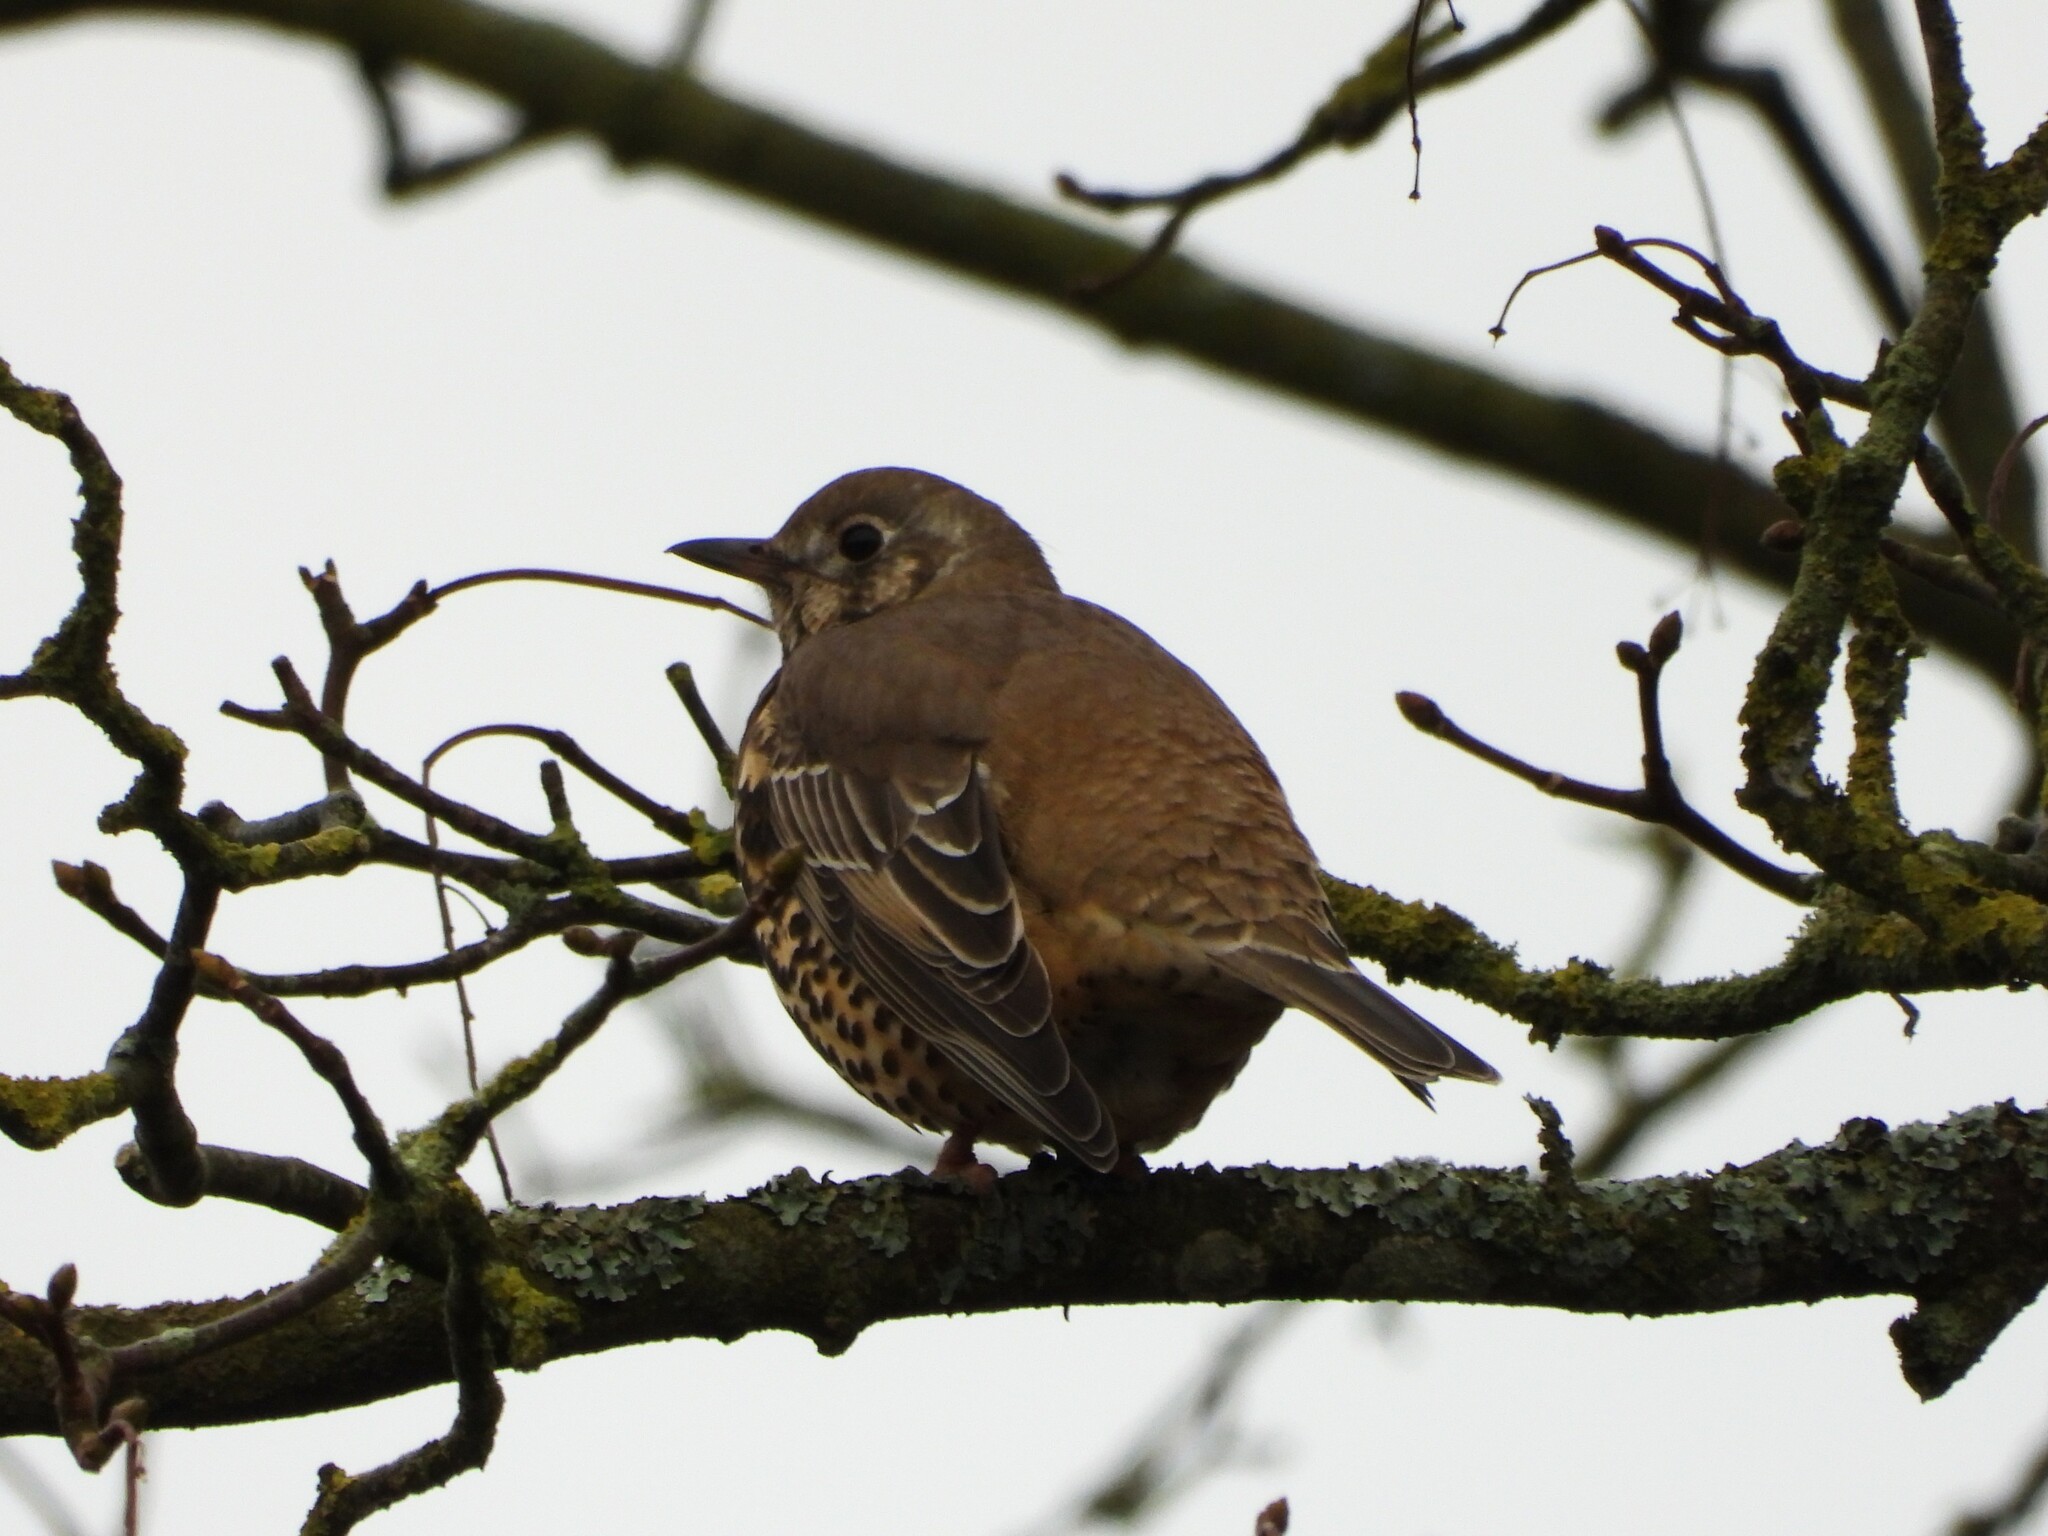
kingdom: Animalia
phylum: Chordata
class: Aves
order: Passeriformes
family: Turdidae
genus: Turdus
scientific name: Turdus viscivorus
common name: Mistle thrush
